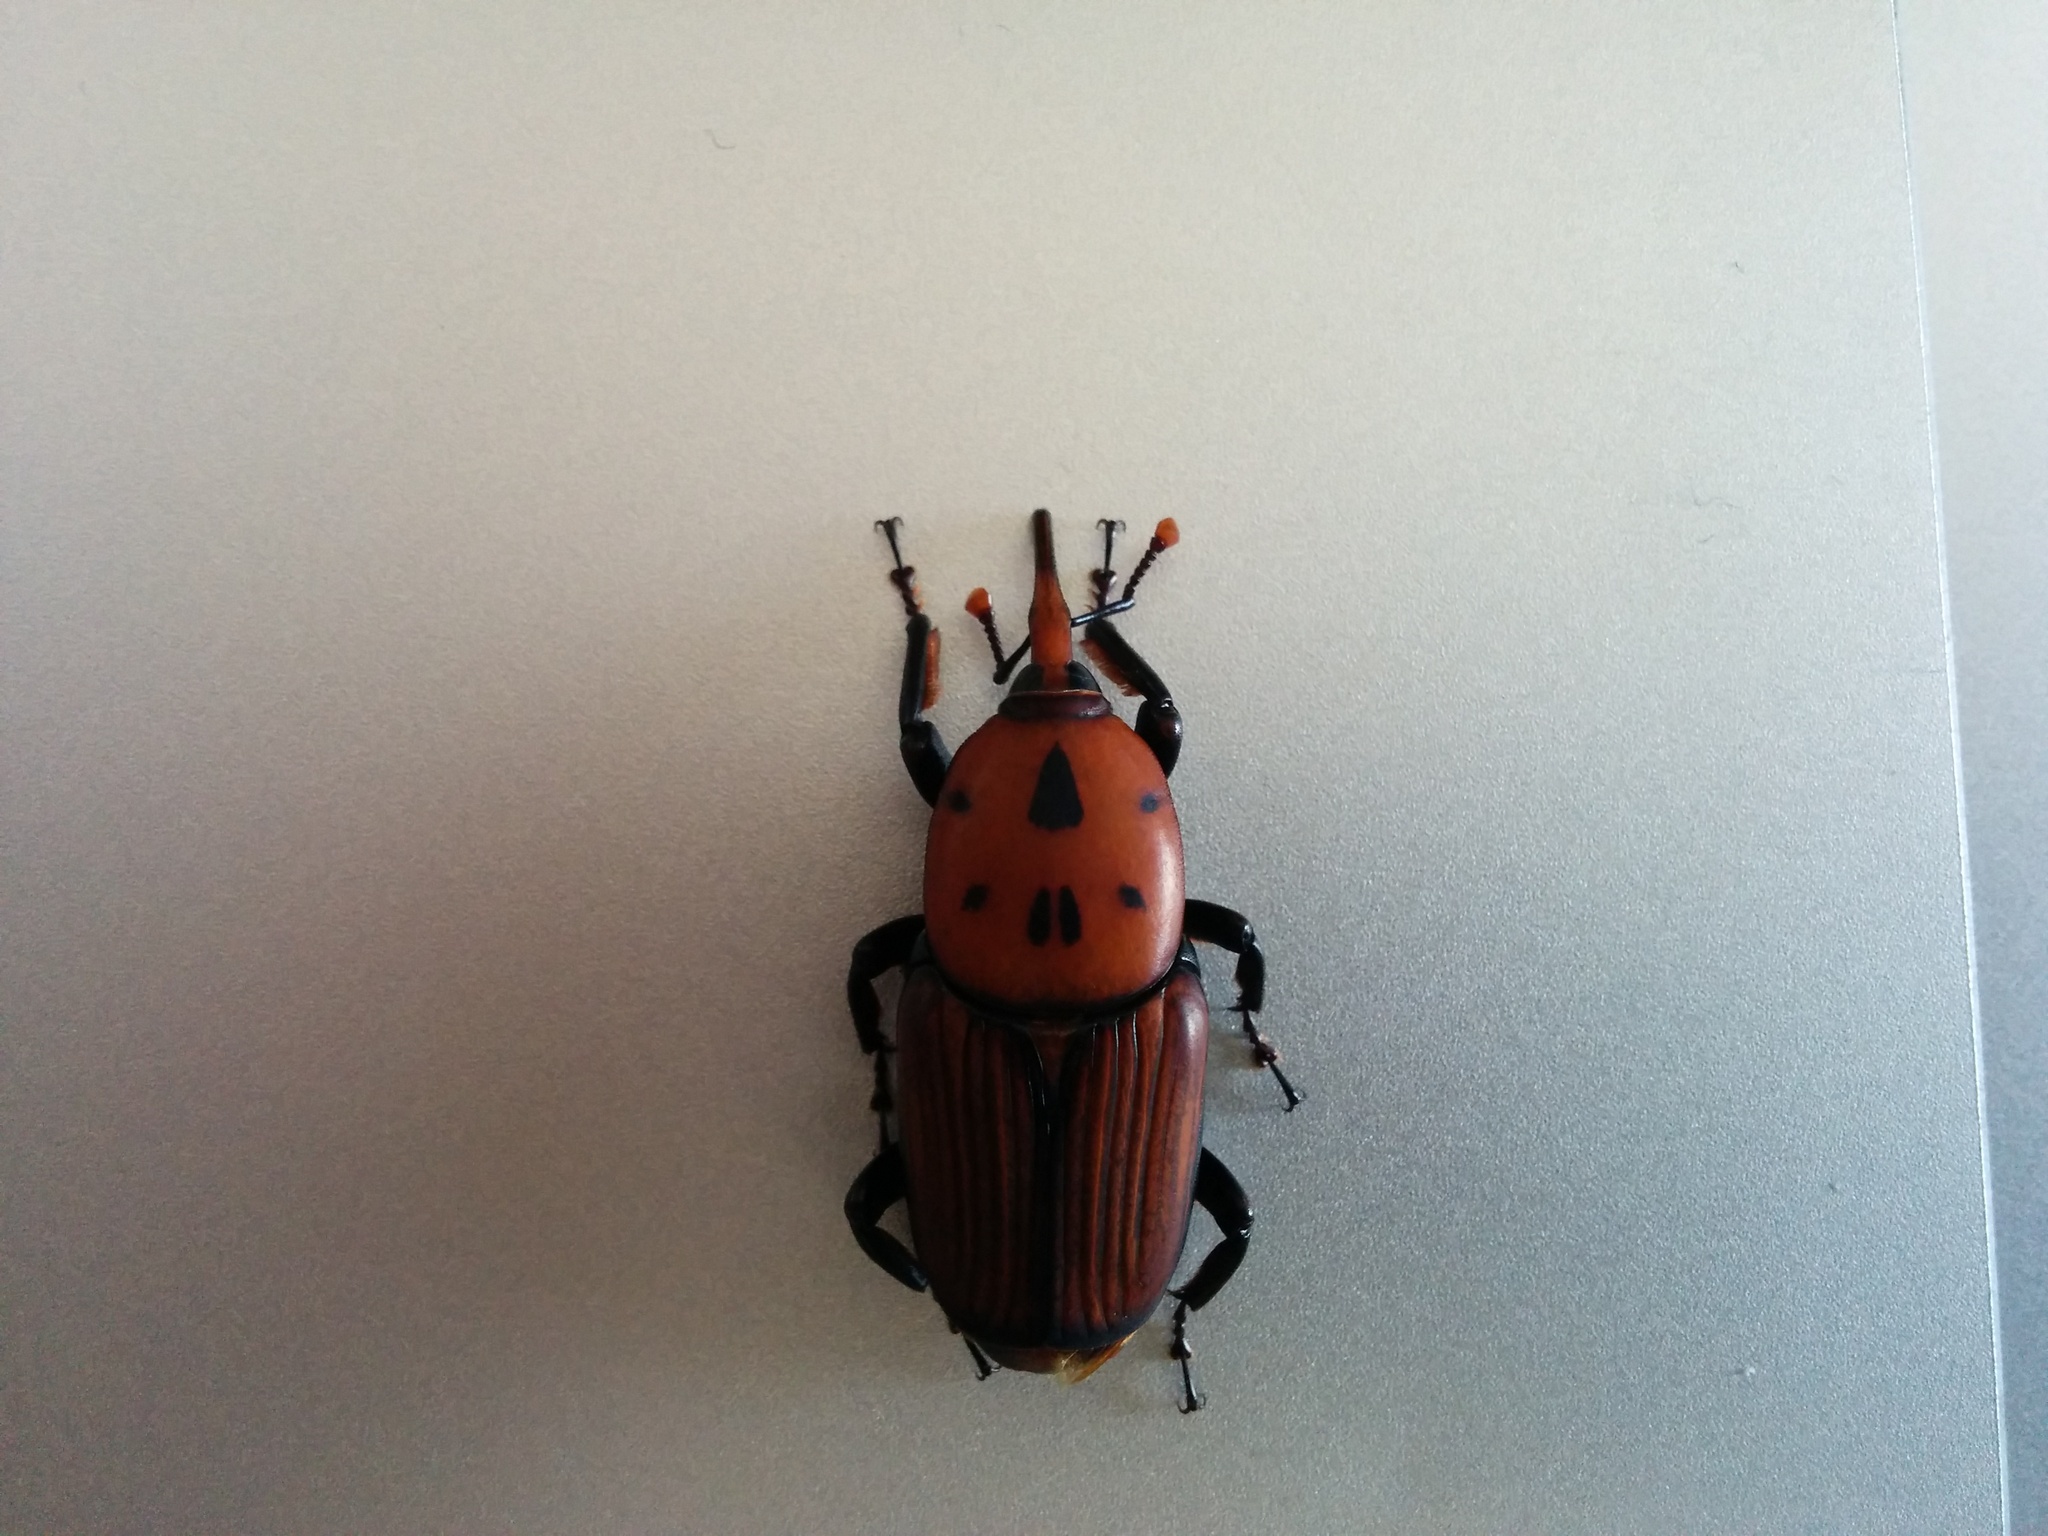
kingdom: Animalia
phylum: Arthropoda
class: Insecta
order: Coleoptera
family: Dryophthoridae
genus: Rhynchophorus
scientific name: Rhynchophorus ferrugineus
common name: Red palm weevil
